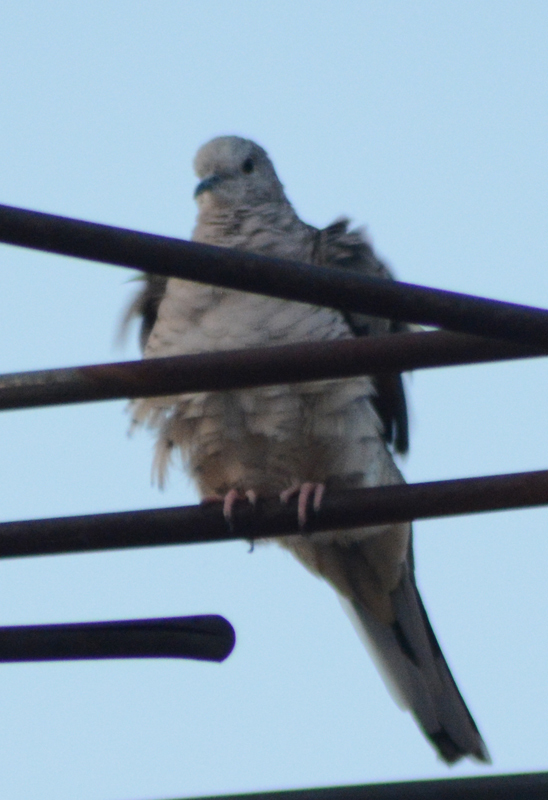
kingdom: Animalia
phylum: Chordata
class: Aves
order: Columbiformes
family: Columbidae
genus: Columbina
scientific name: Columbina inca
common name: Inca dove
